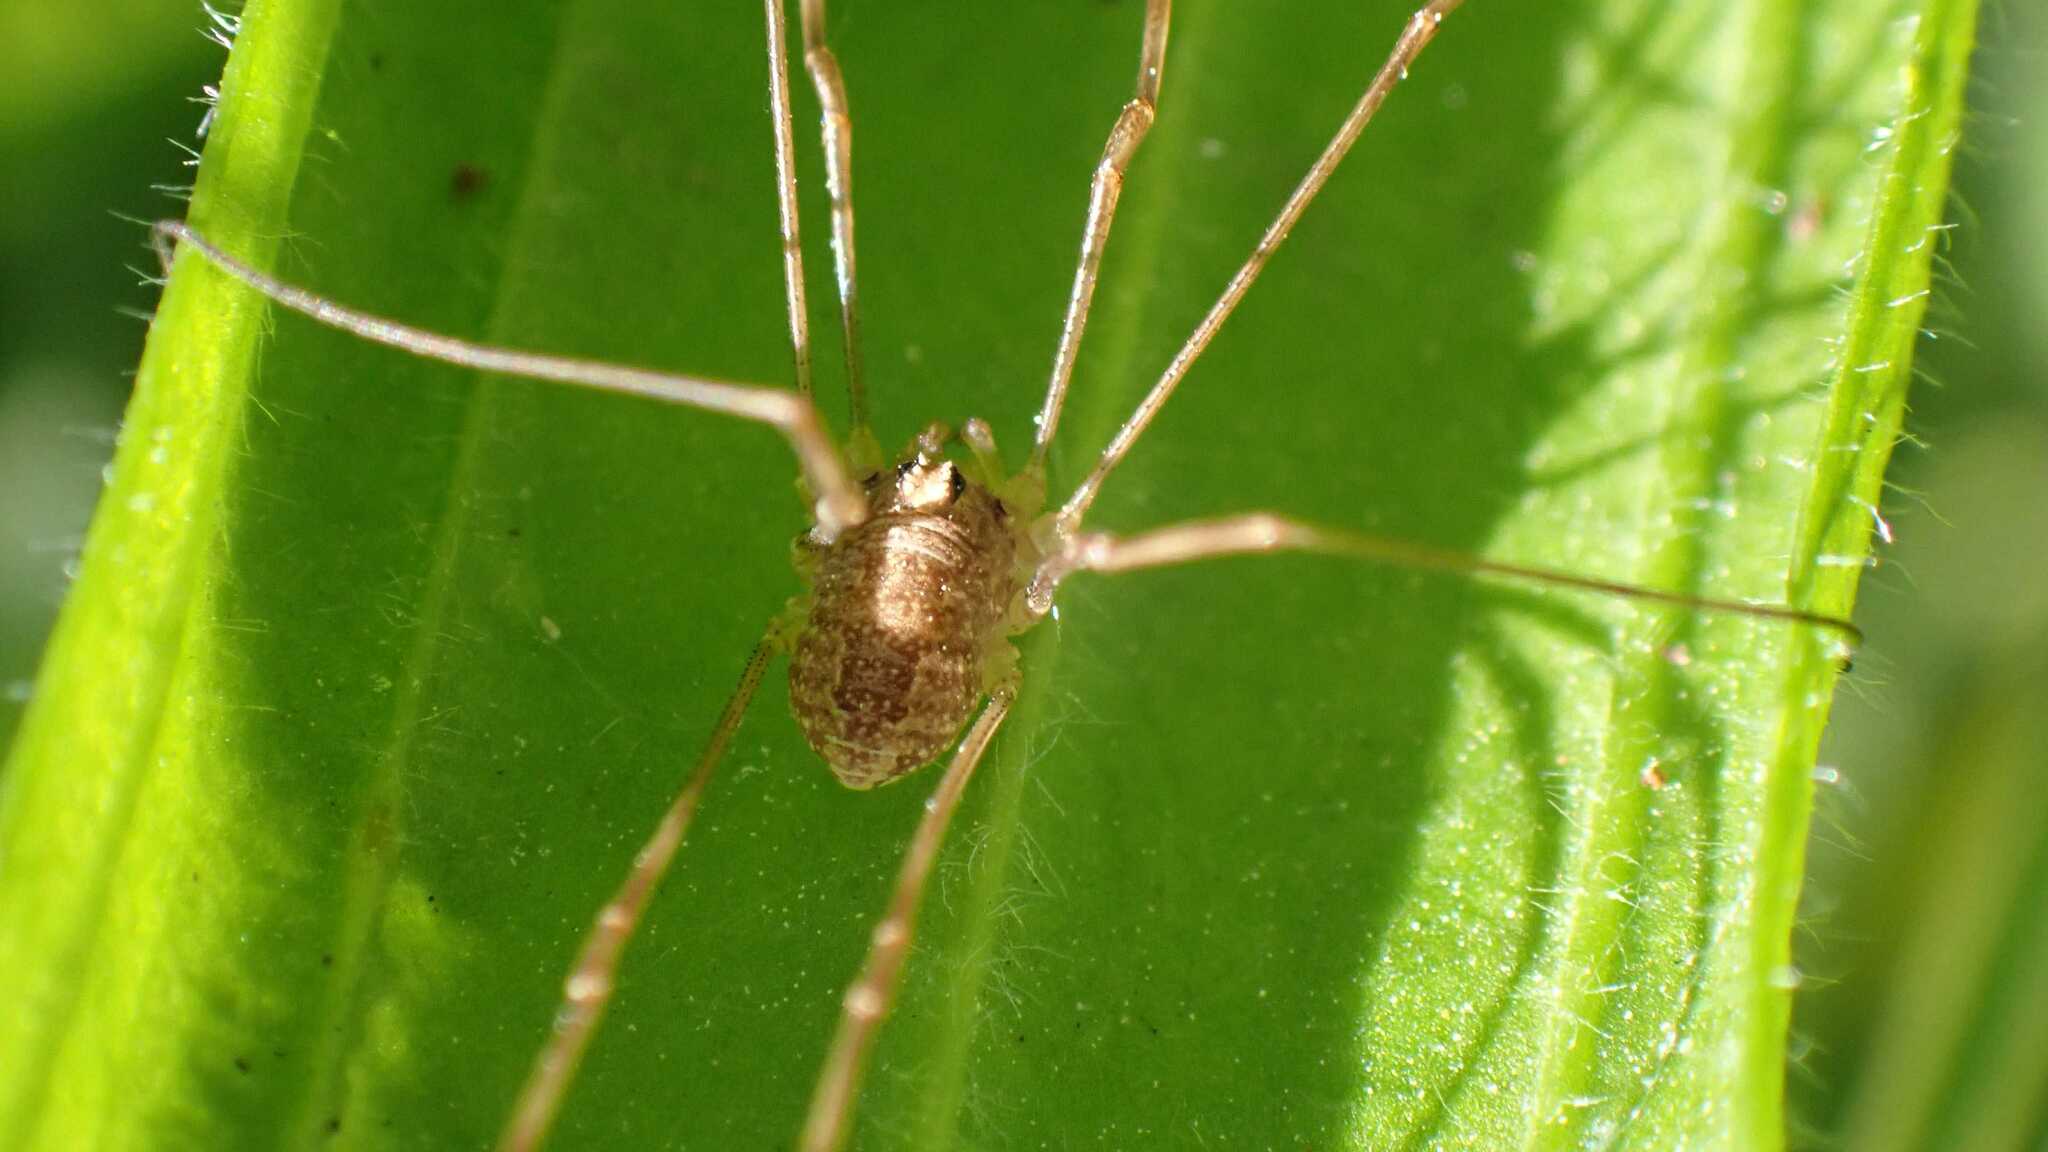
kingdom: Animalia
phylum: Arthropoda
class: Arachnida
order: Opiliones
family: Phalangiidae
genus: Rilaena
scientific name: Rilaena triangularis
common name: Spring harvestman
